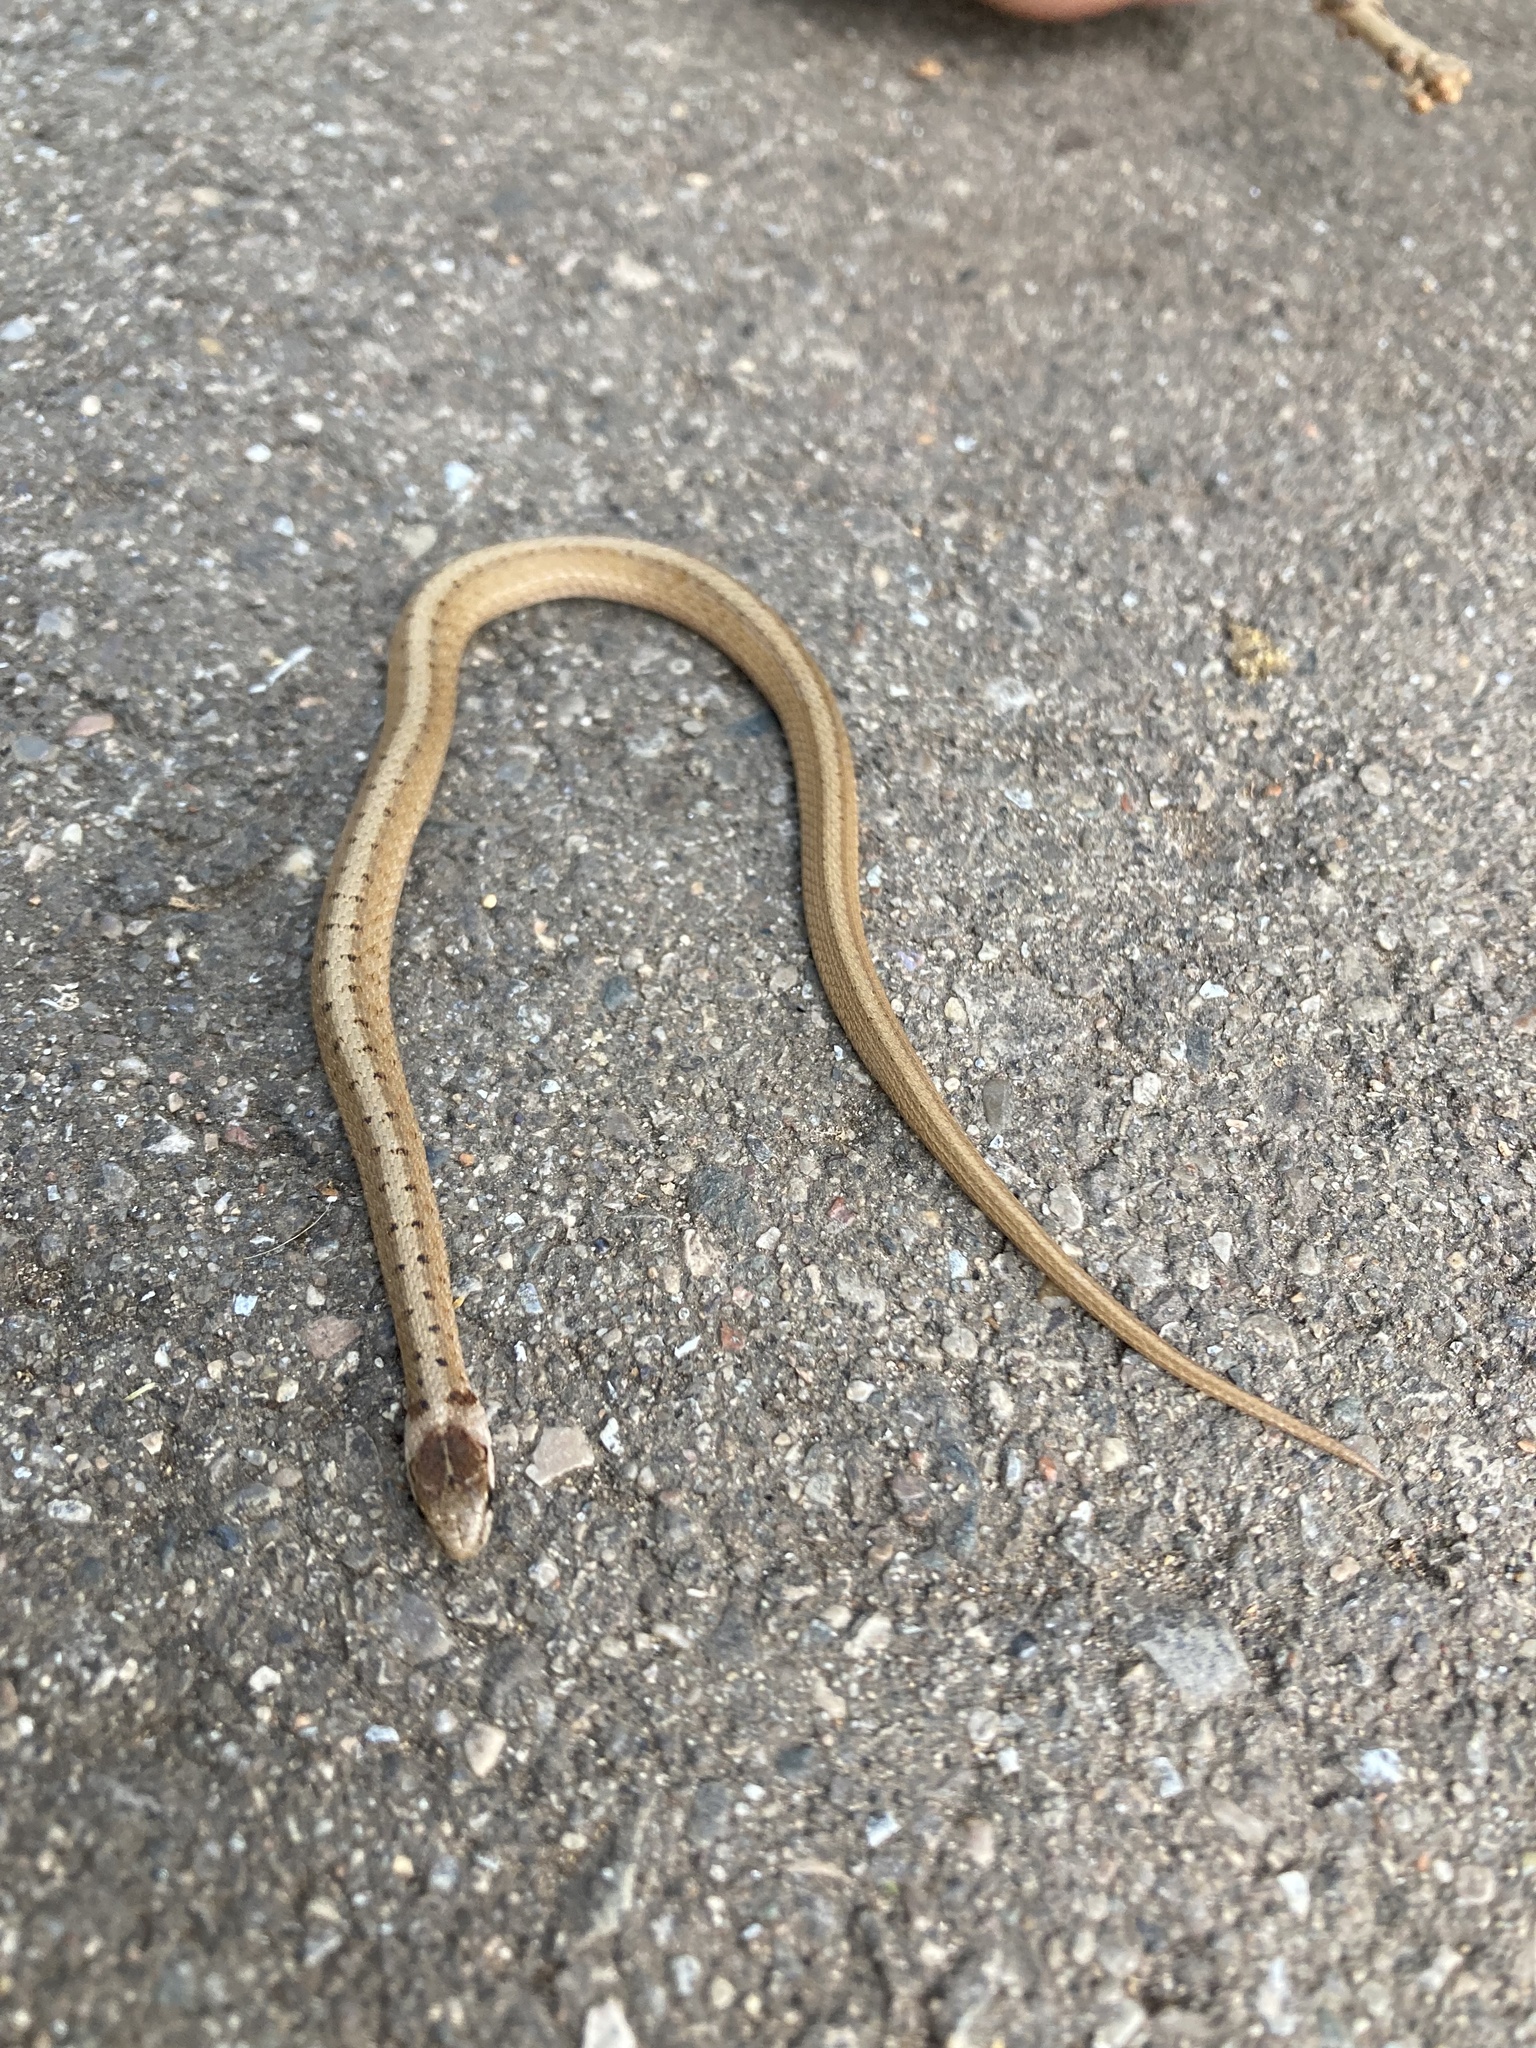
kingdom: Animalia
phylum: Chordata
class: Squamata
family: Colubridae
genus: Storeria
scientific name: Storeria dekayi
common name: (dekay’s) brown snake
